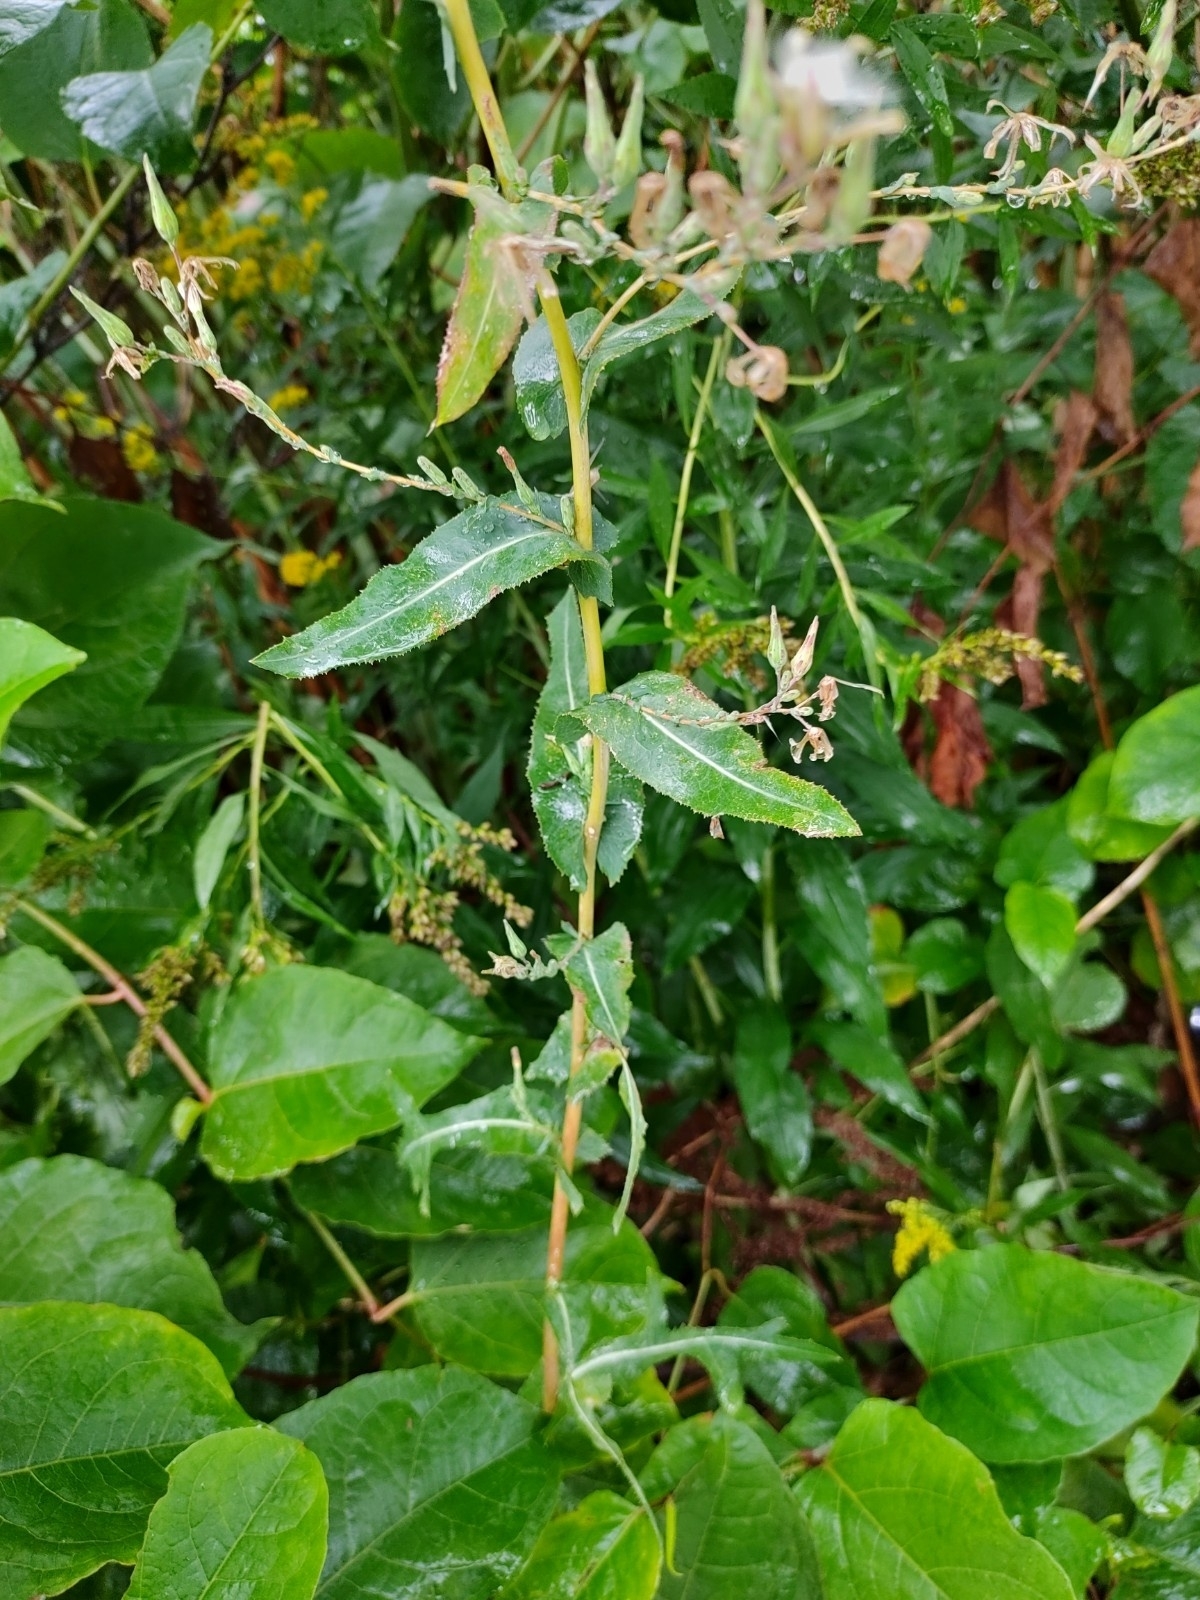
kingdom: Plantae
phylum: Tracheophyta
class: Magnoliopsida
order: Asterales
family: Asteraceae
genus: Lactuca
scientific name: Lactuca serriola
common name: Prickly lettuce
